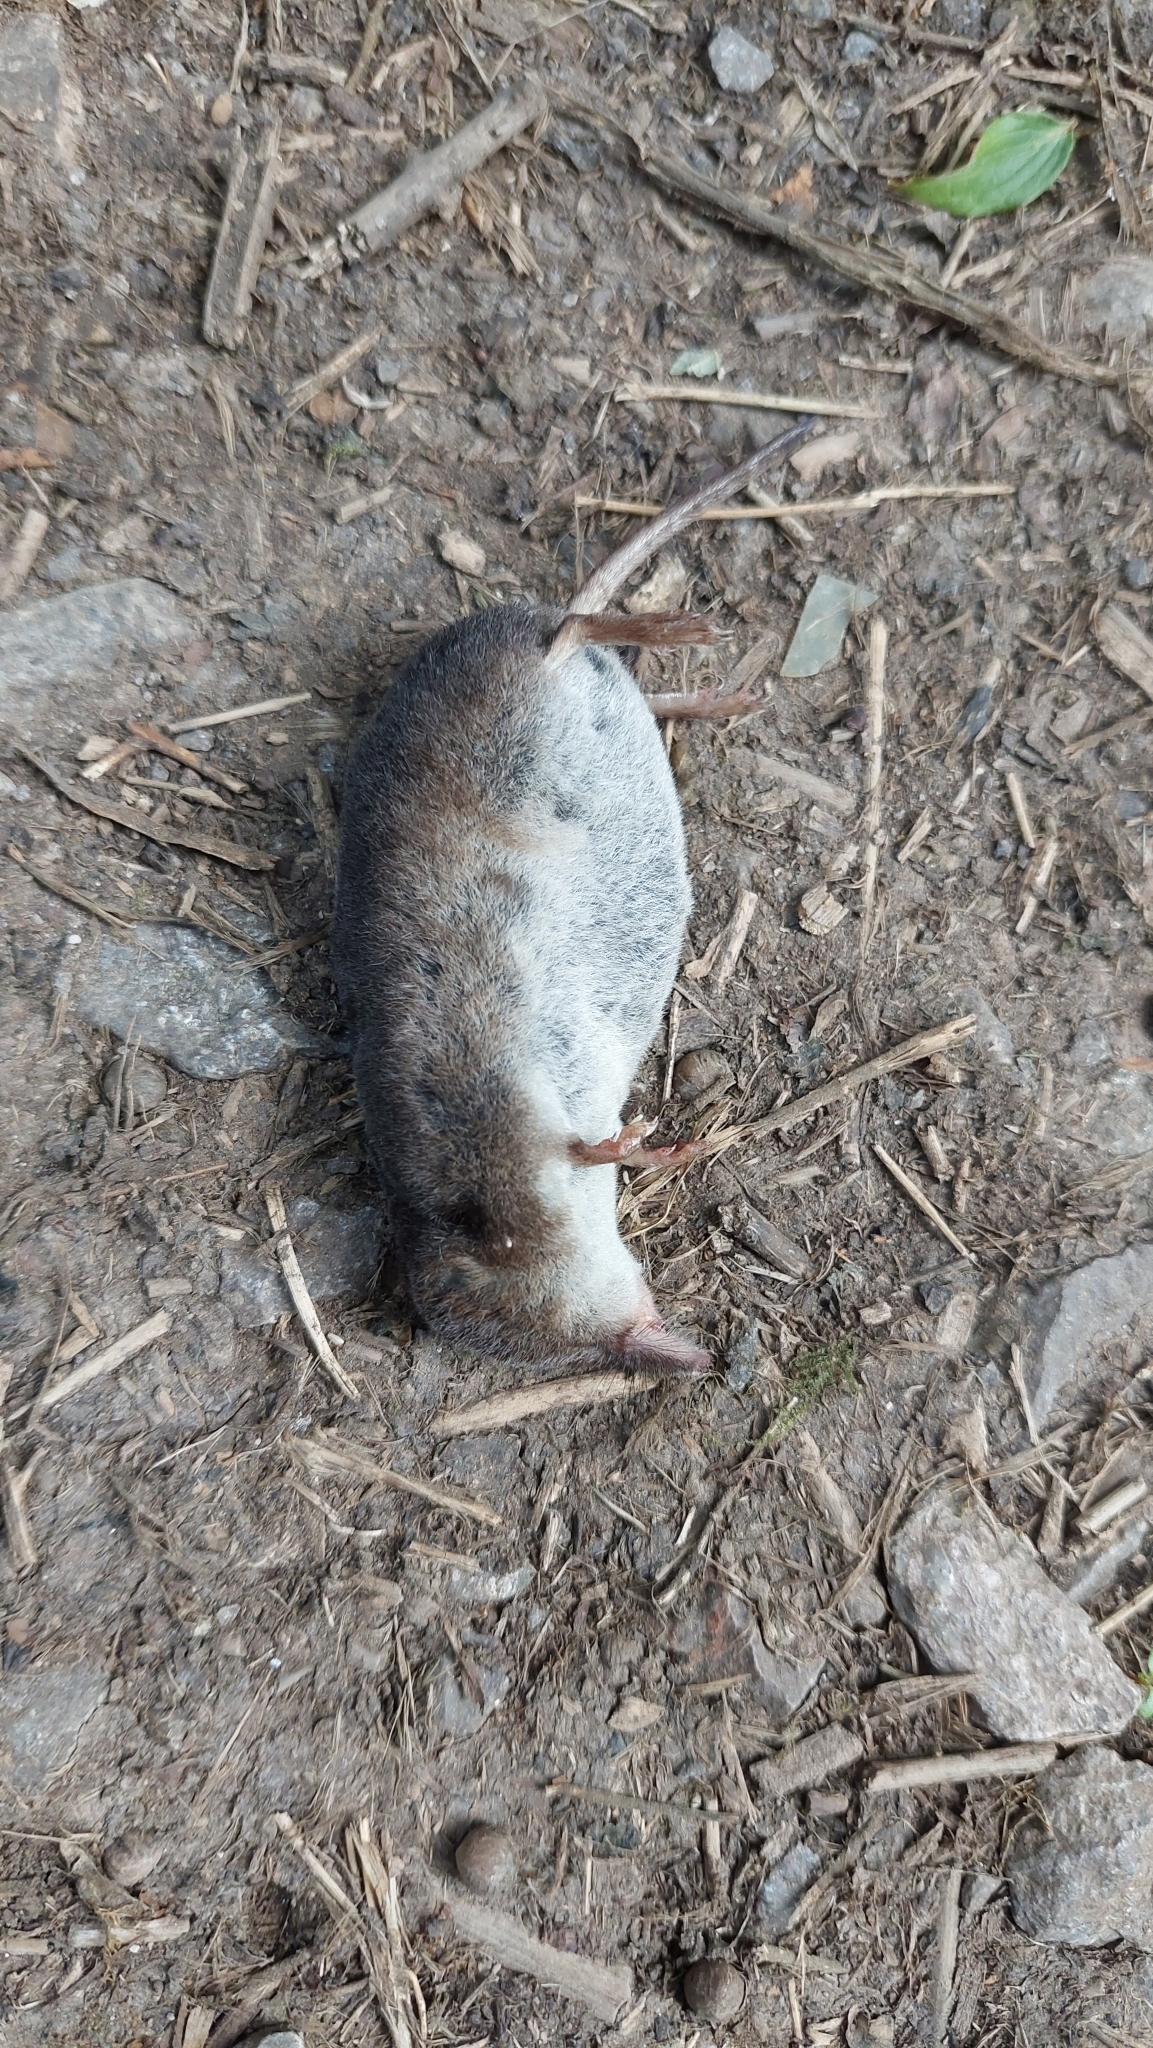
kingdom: Animalia
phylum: Chordata
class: Mammalia
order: Soricomorpha
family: Soricidae
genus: Sorex
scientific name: Sorex araneus
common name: Common shrew
